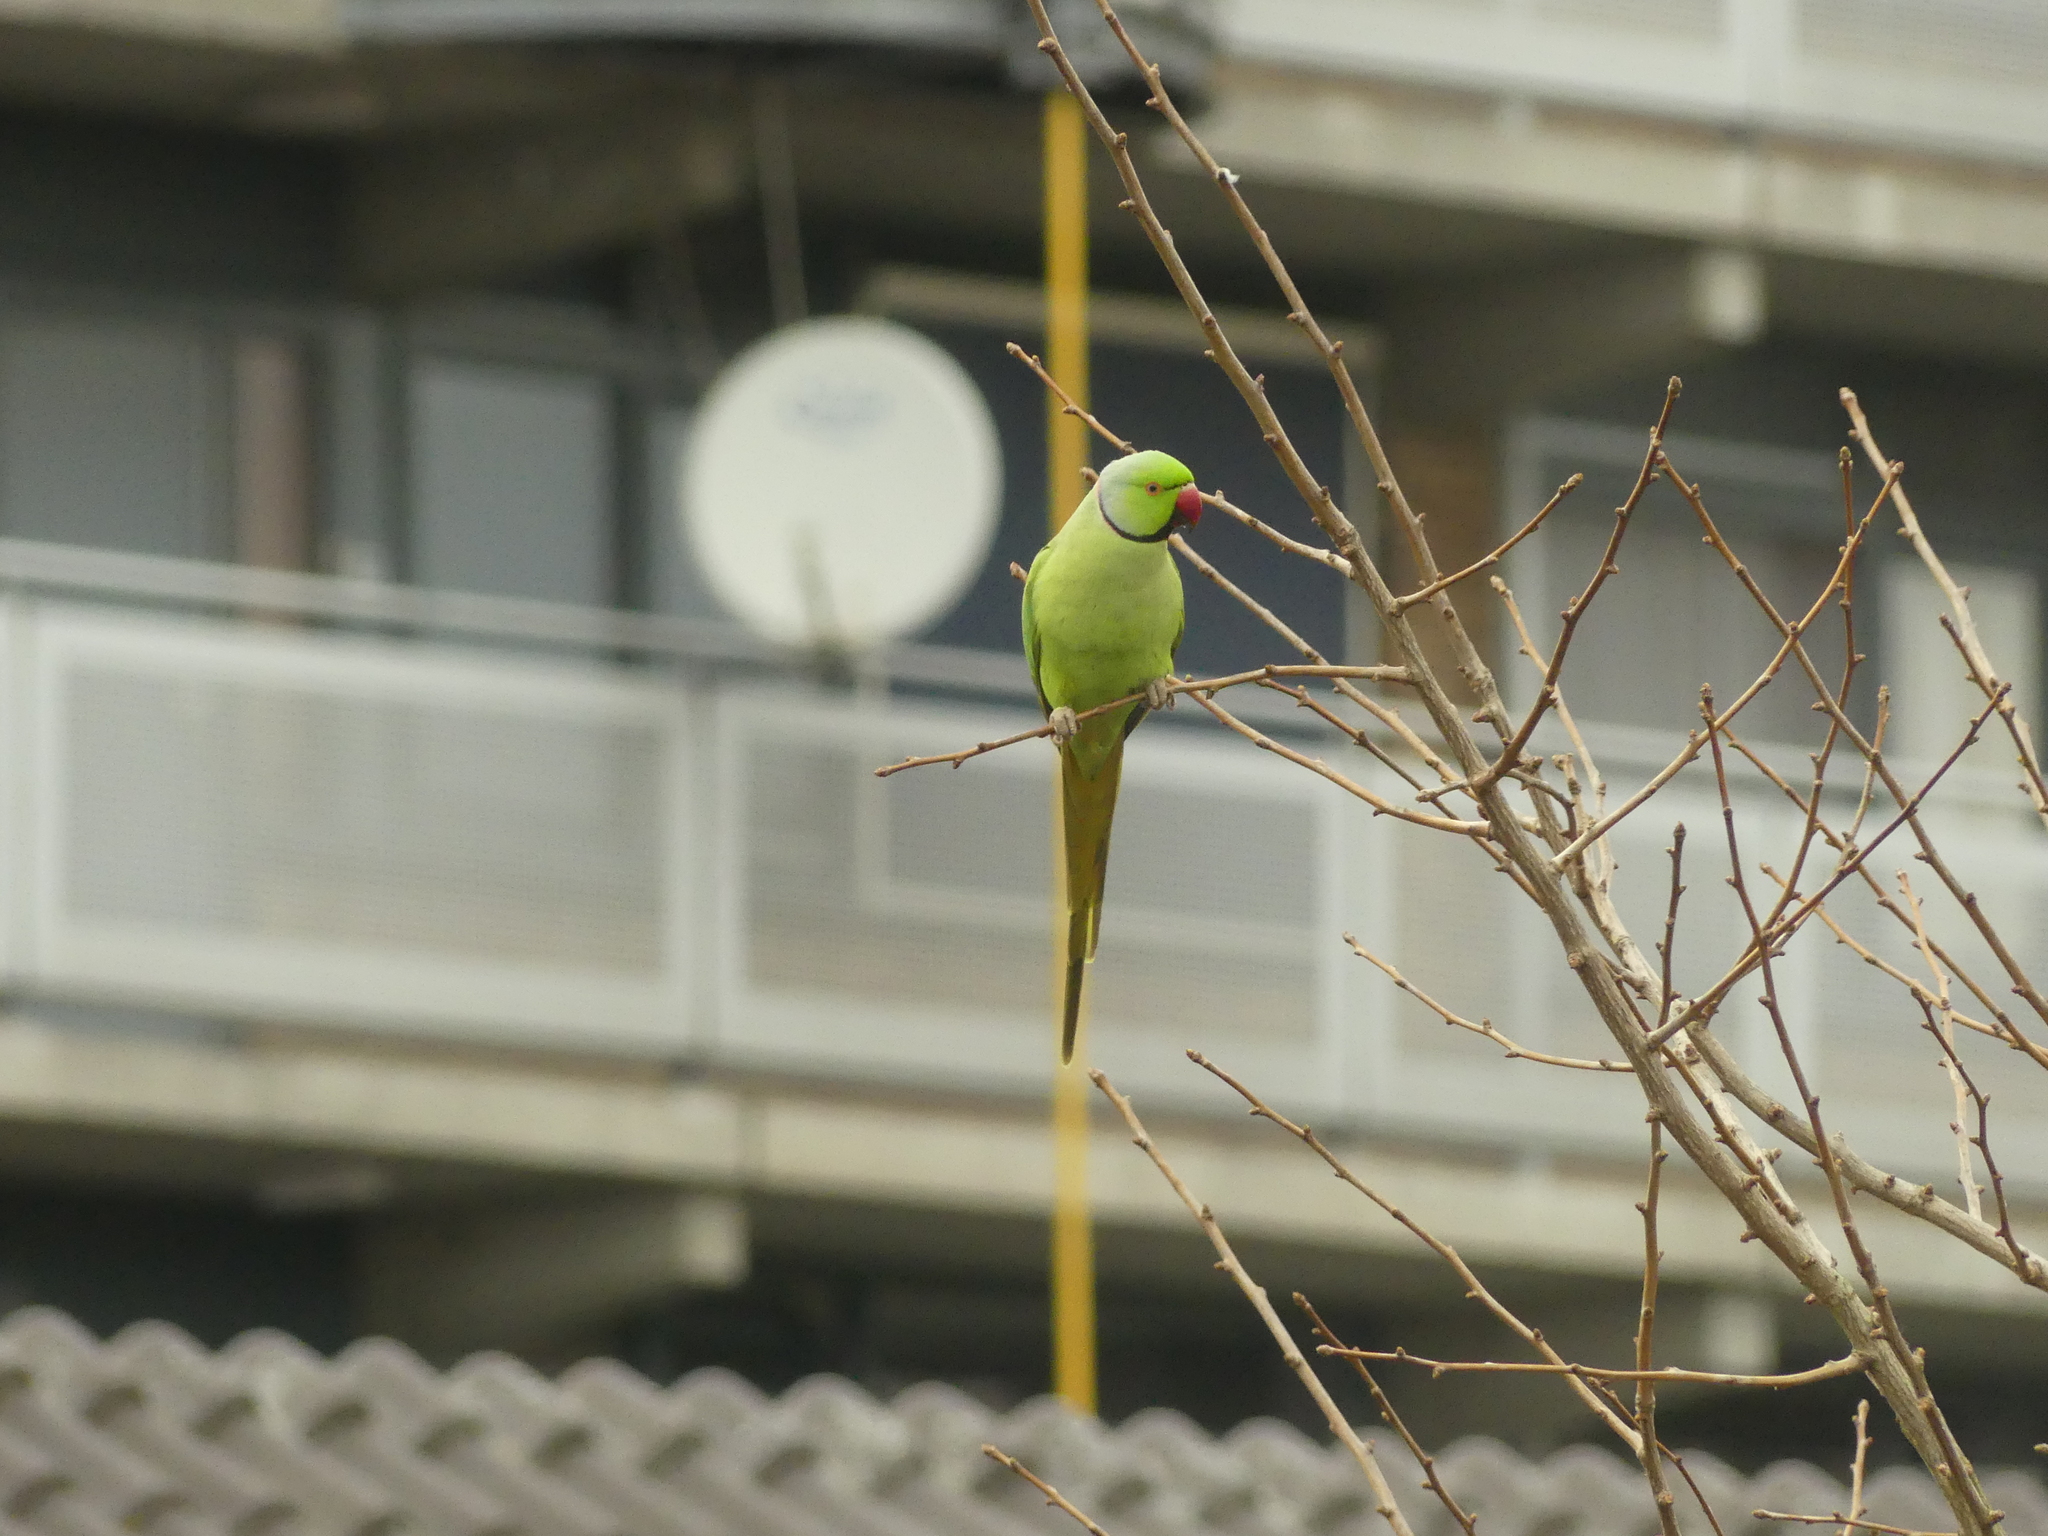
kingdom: Animalia
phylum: Chordata
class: Aves
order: Psittaciformes
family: Psittacidae
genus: Psittacula
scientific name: Psittacula krameri
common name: Rose-ringed parakeet
